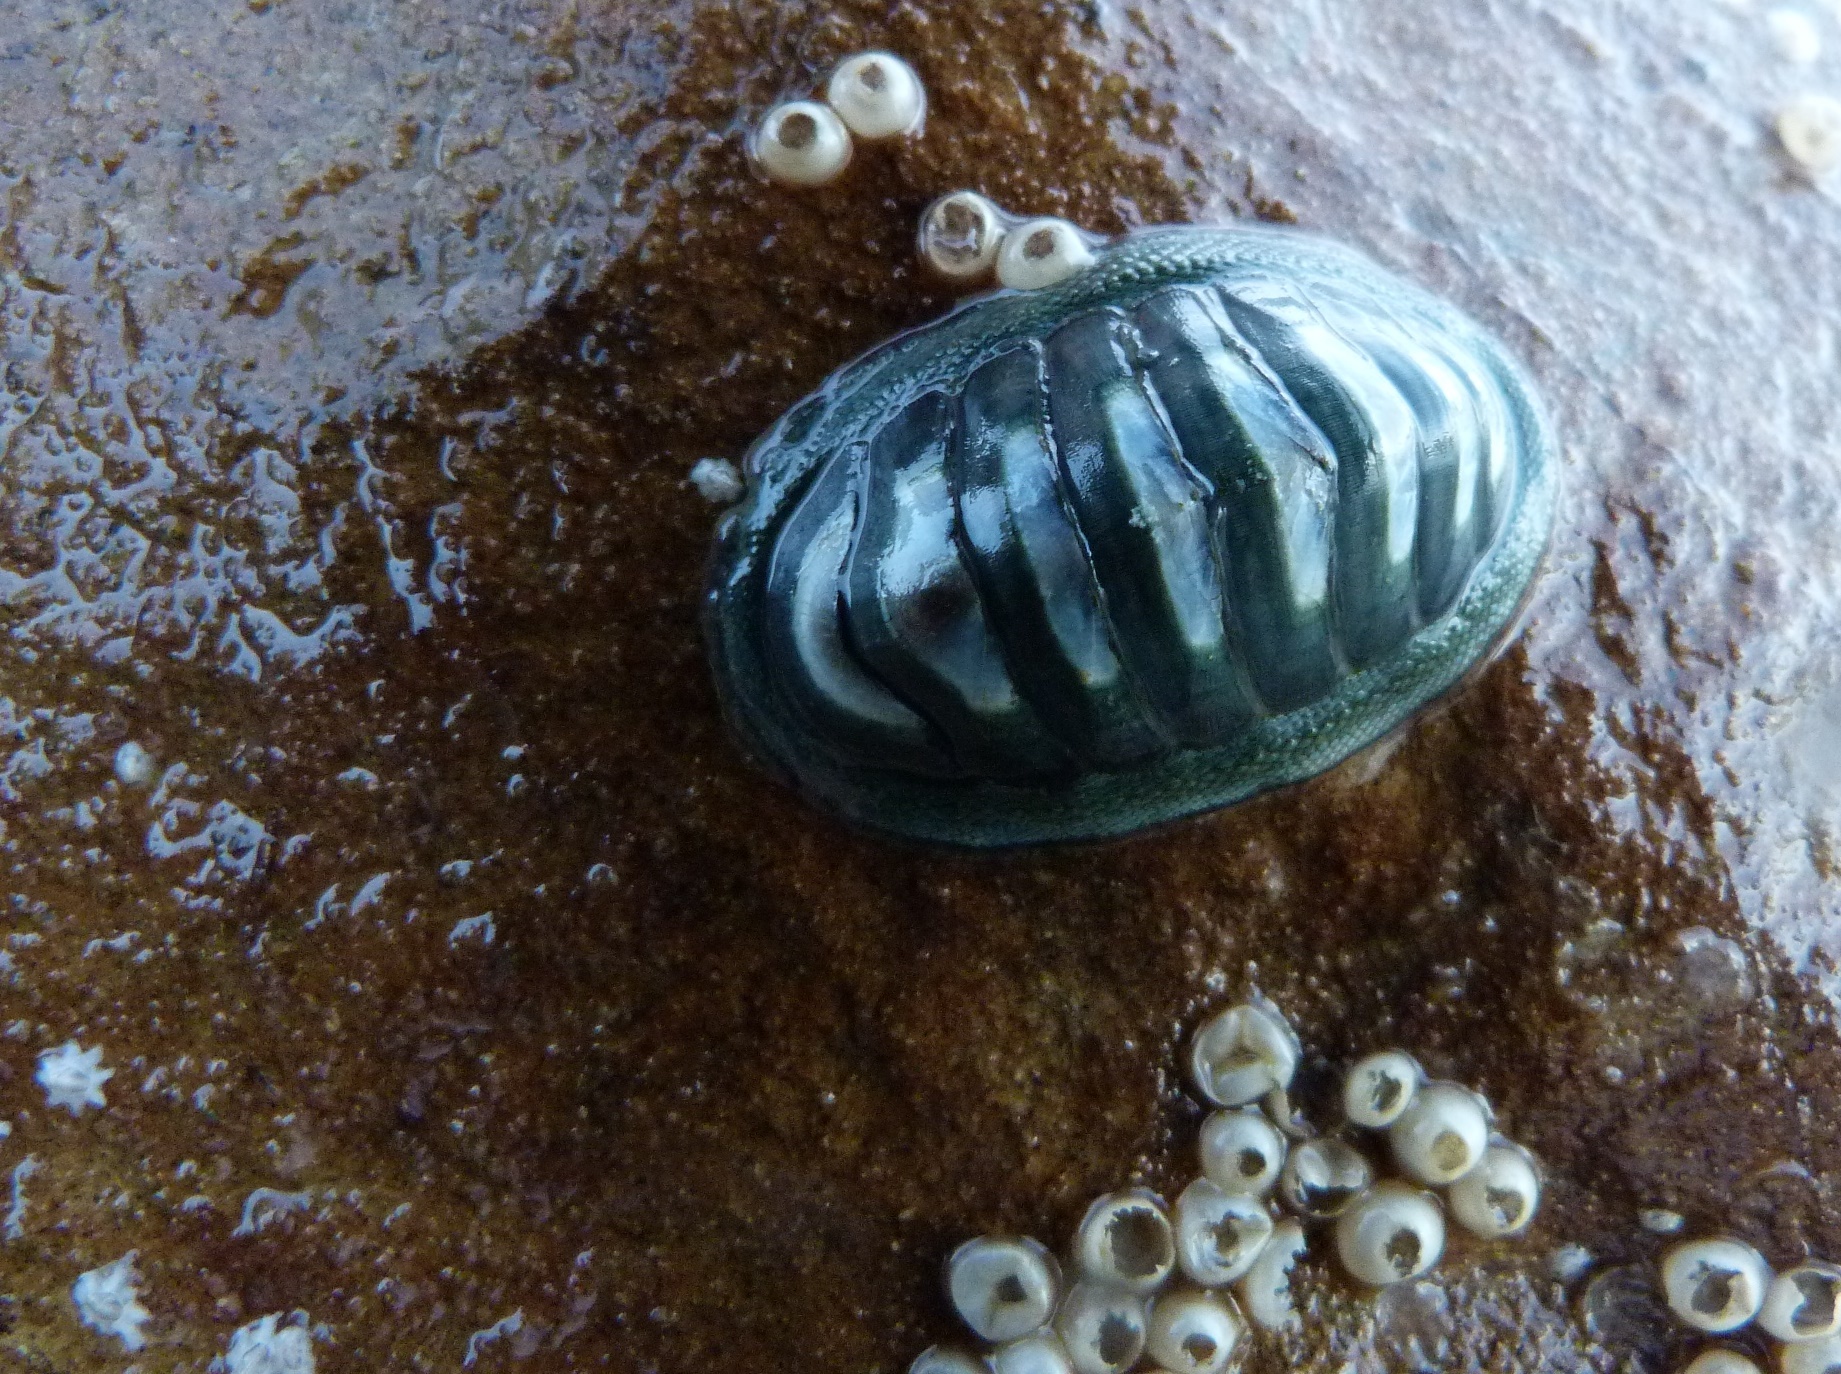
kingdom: Animalia
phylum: Mollusca
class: Polyplacophora
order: Chitonida
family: Chitonidae
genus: Chiton
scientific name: Chiton glaucus
